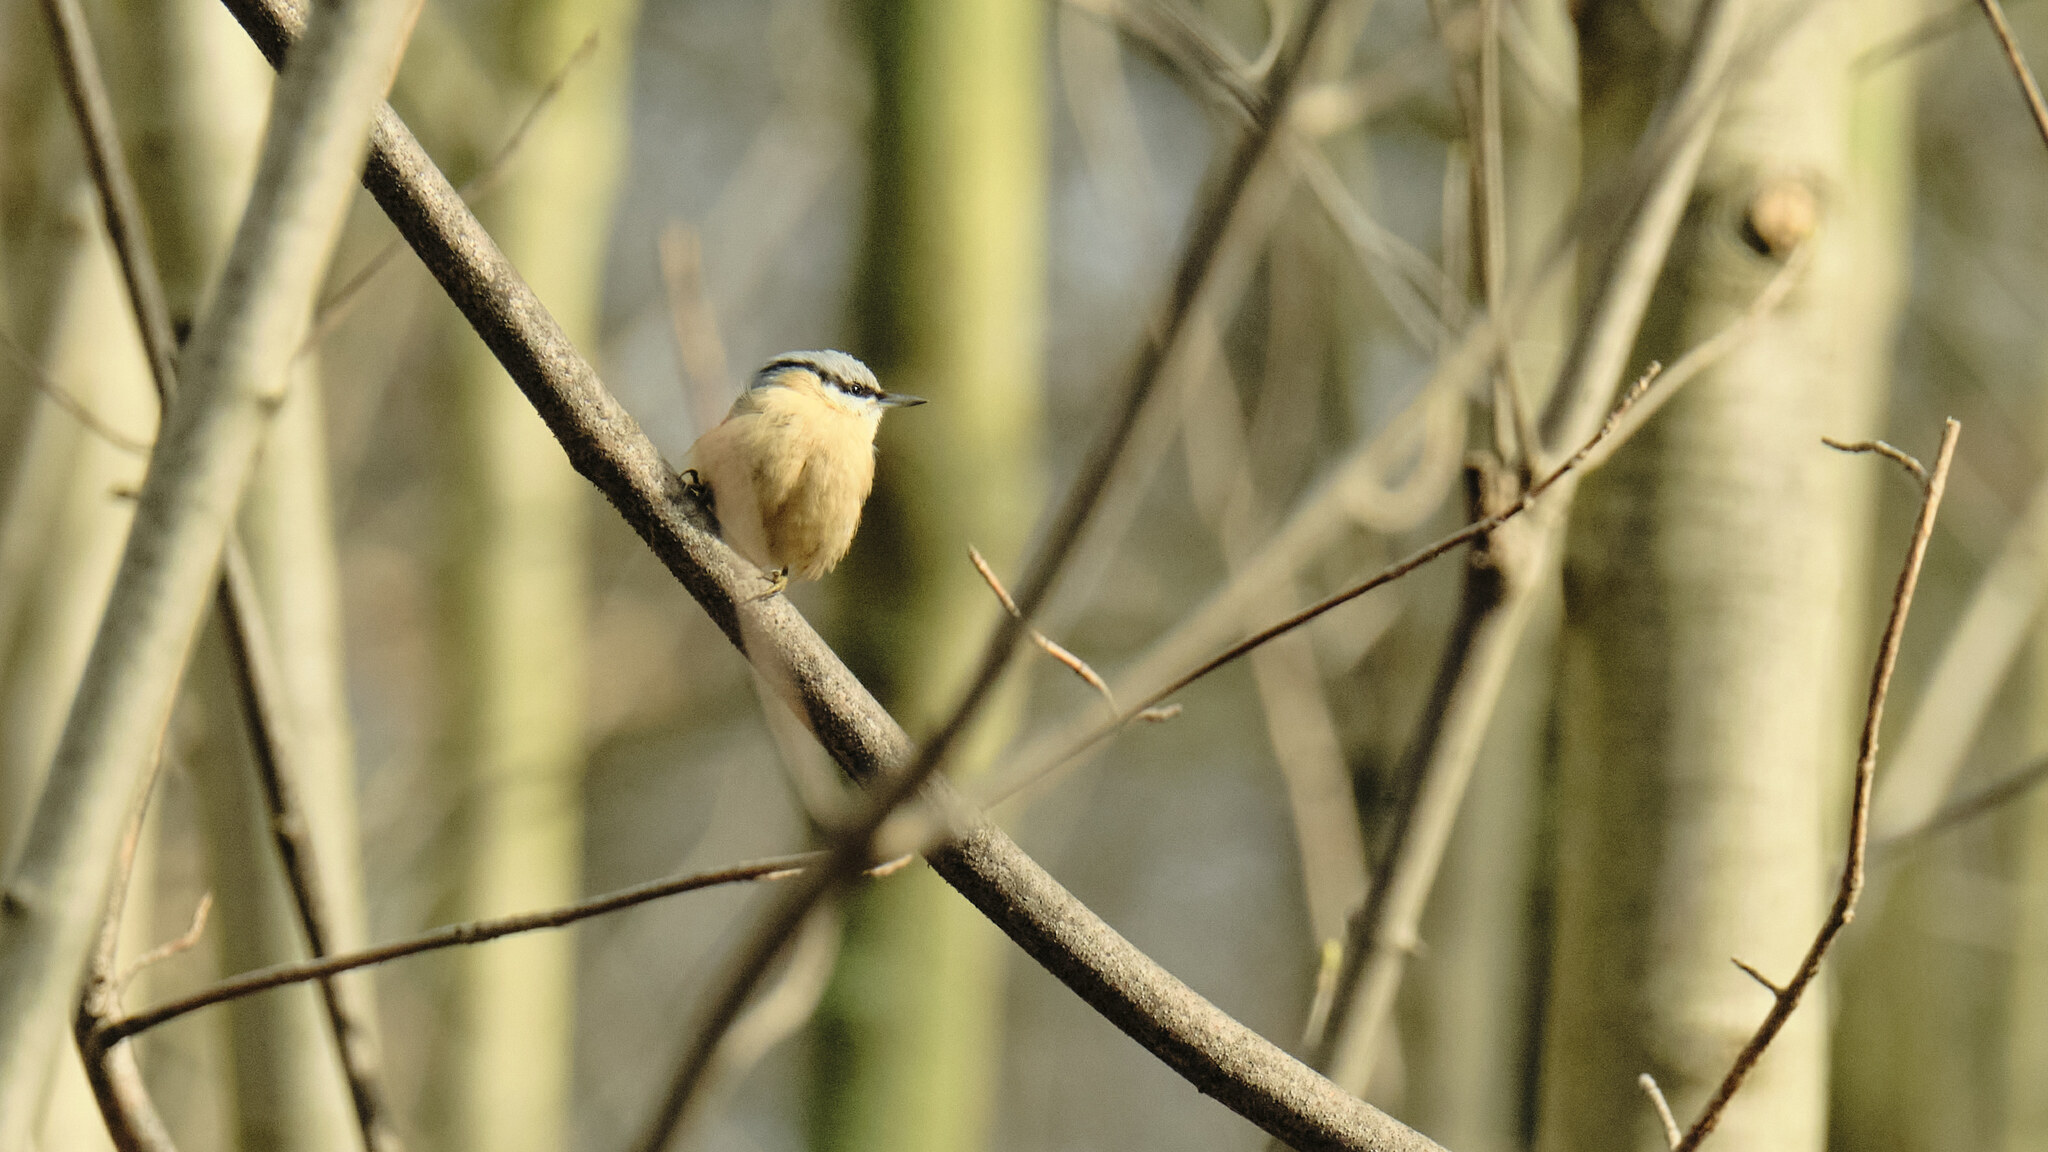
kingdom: Animalia
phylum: Chordata
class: Aves
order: Passeriformes
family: Sittidae
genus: Sitta
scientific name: Sitta europaea
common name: Eurasian nuthatch
